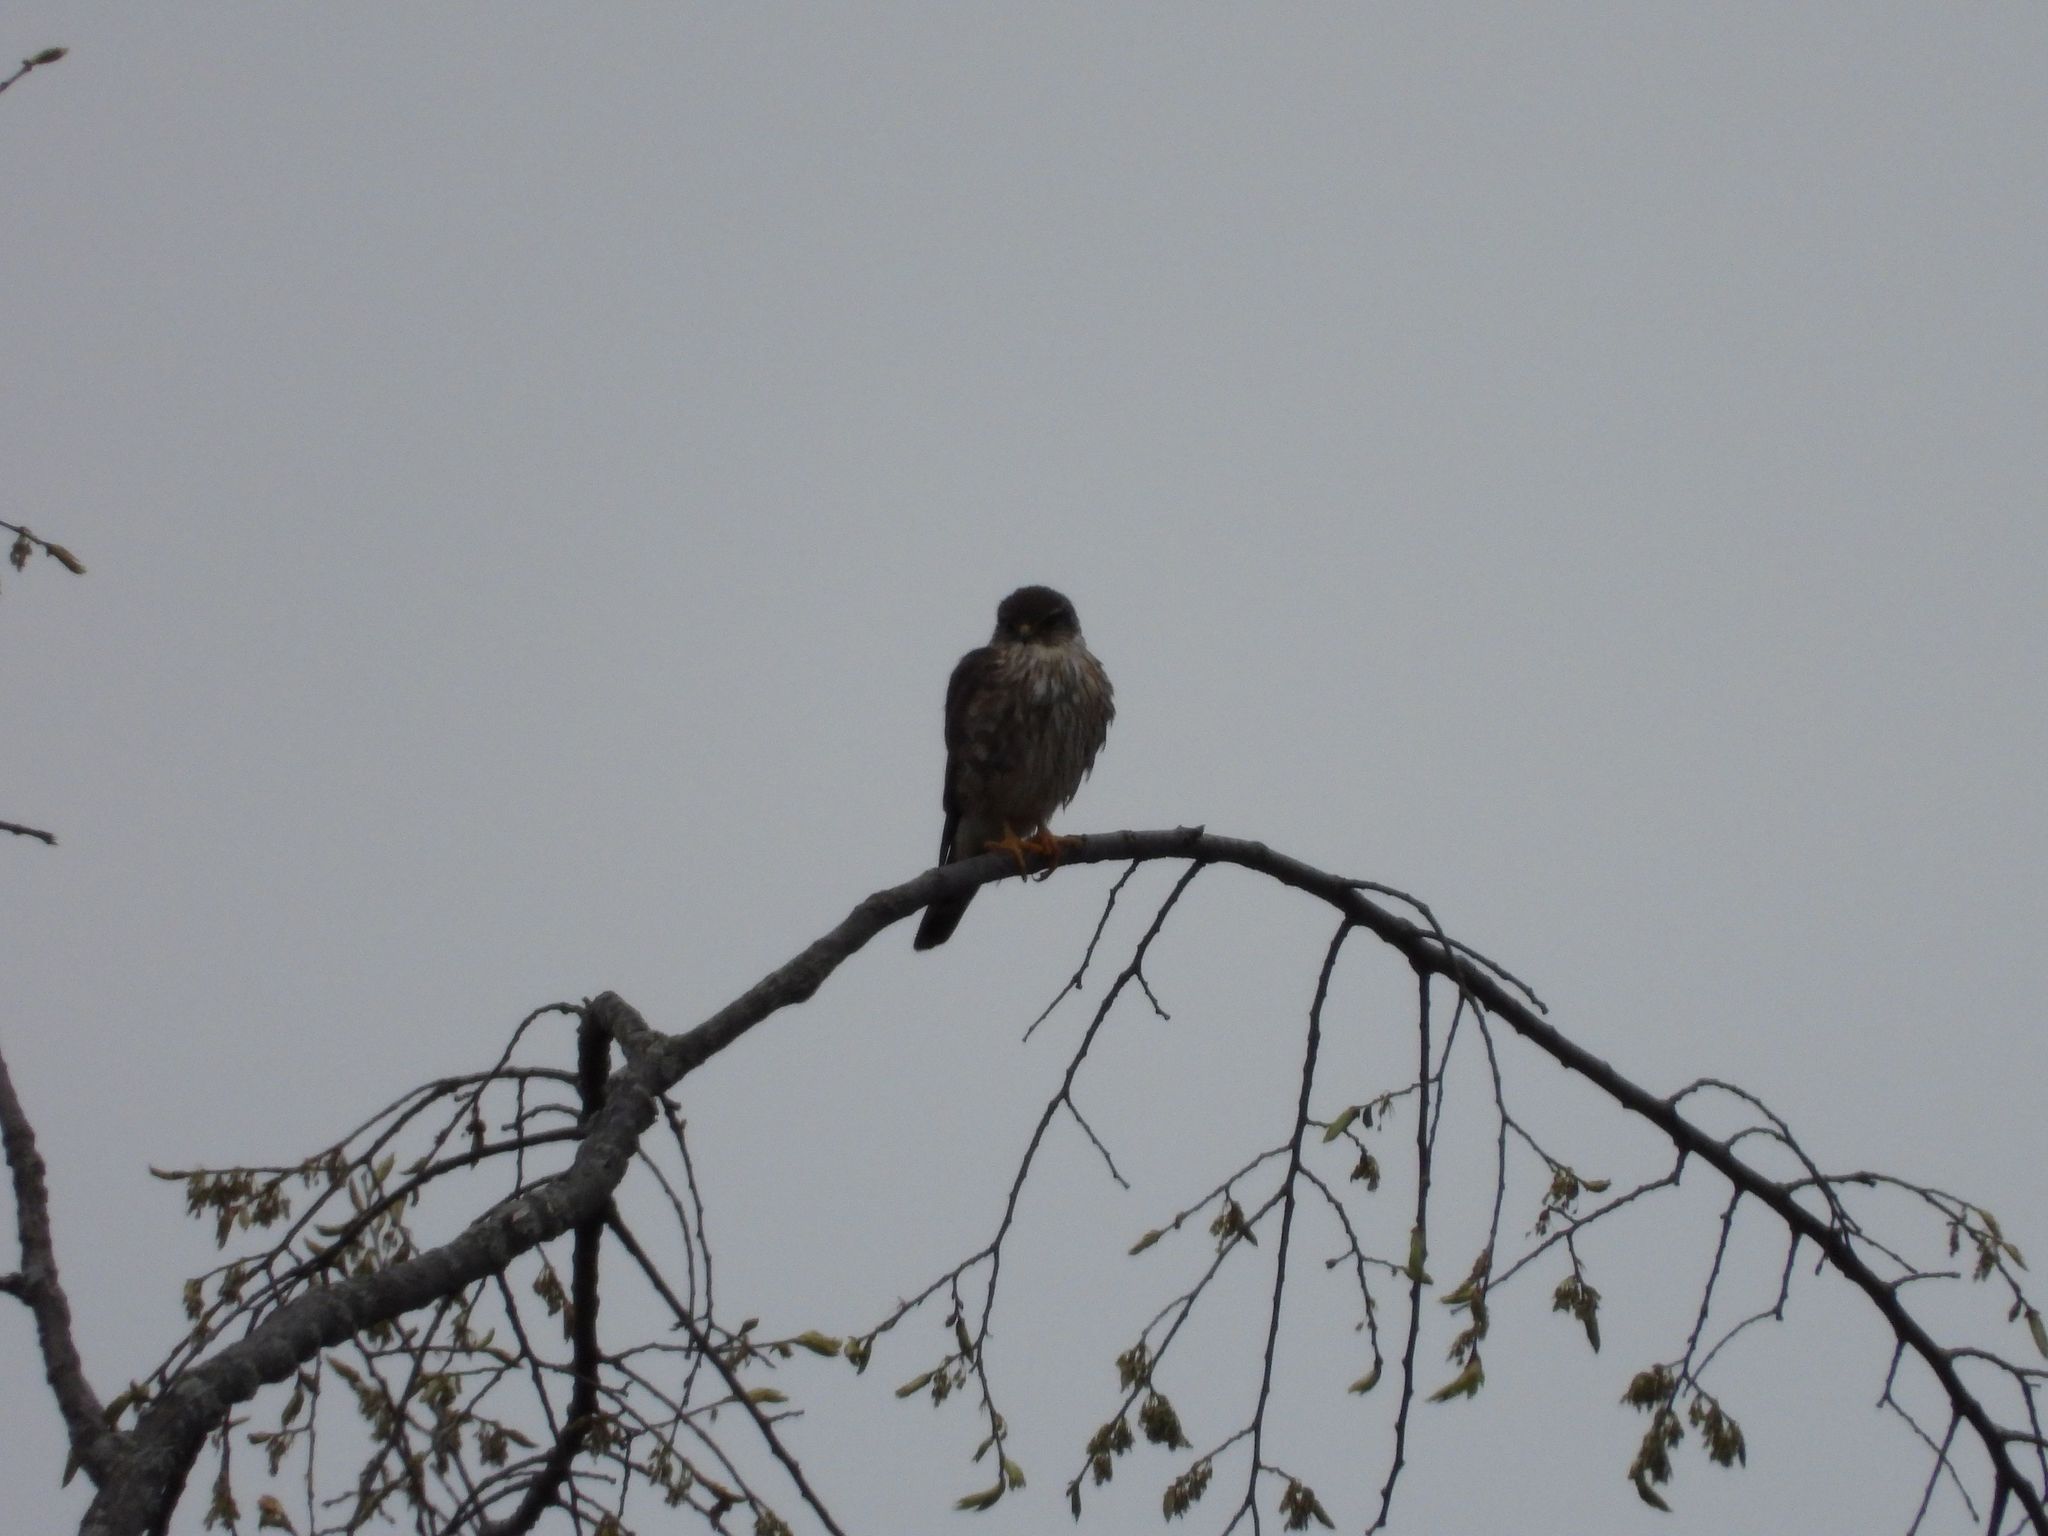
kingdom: Animalia
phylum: Chordata
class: Aves
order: Falconiformes
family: Falconidae
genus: Falco
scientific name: Falco columbarius
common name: Merlin
